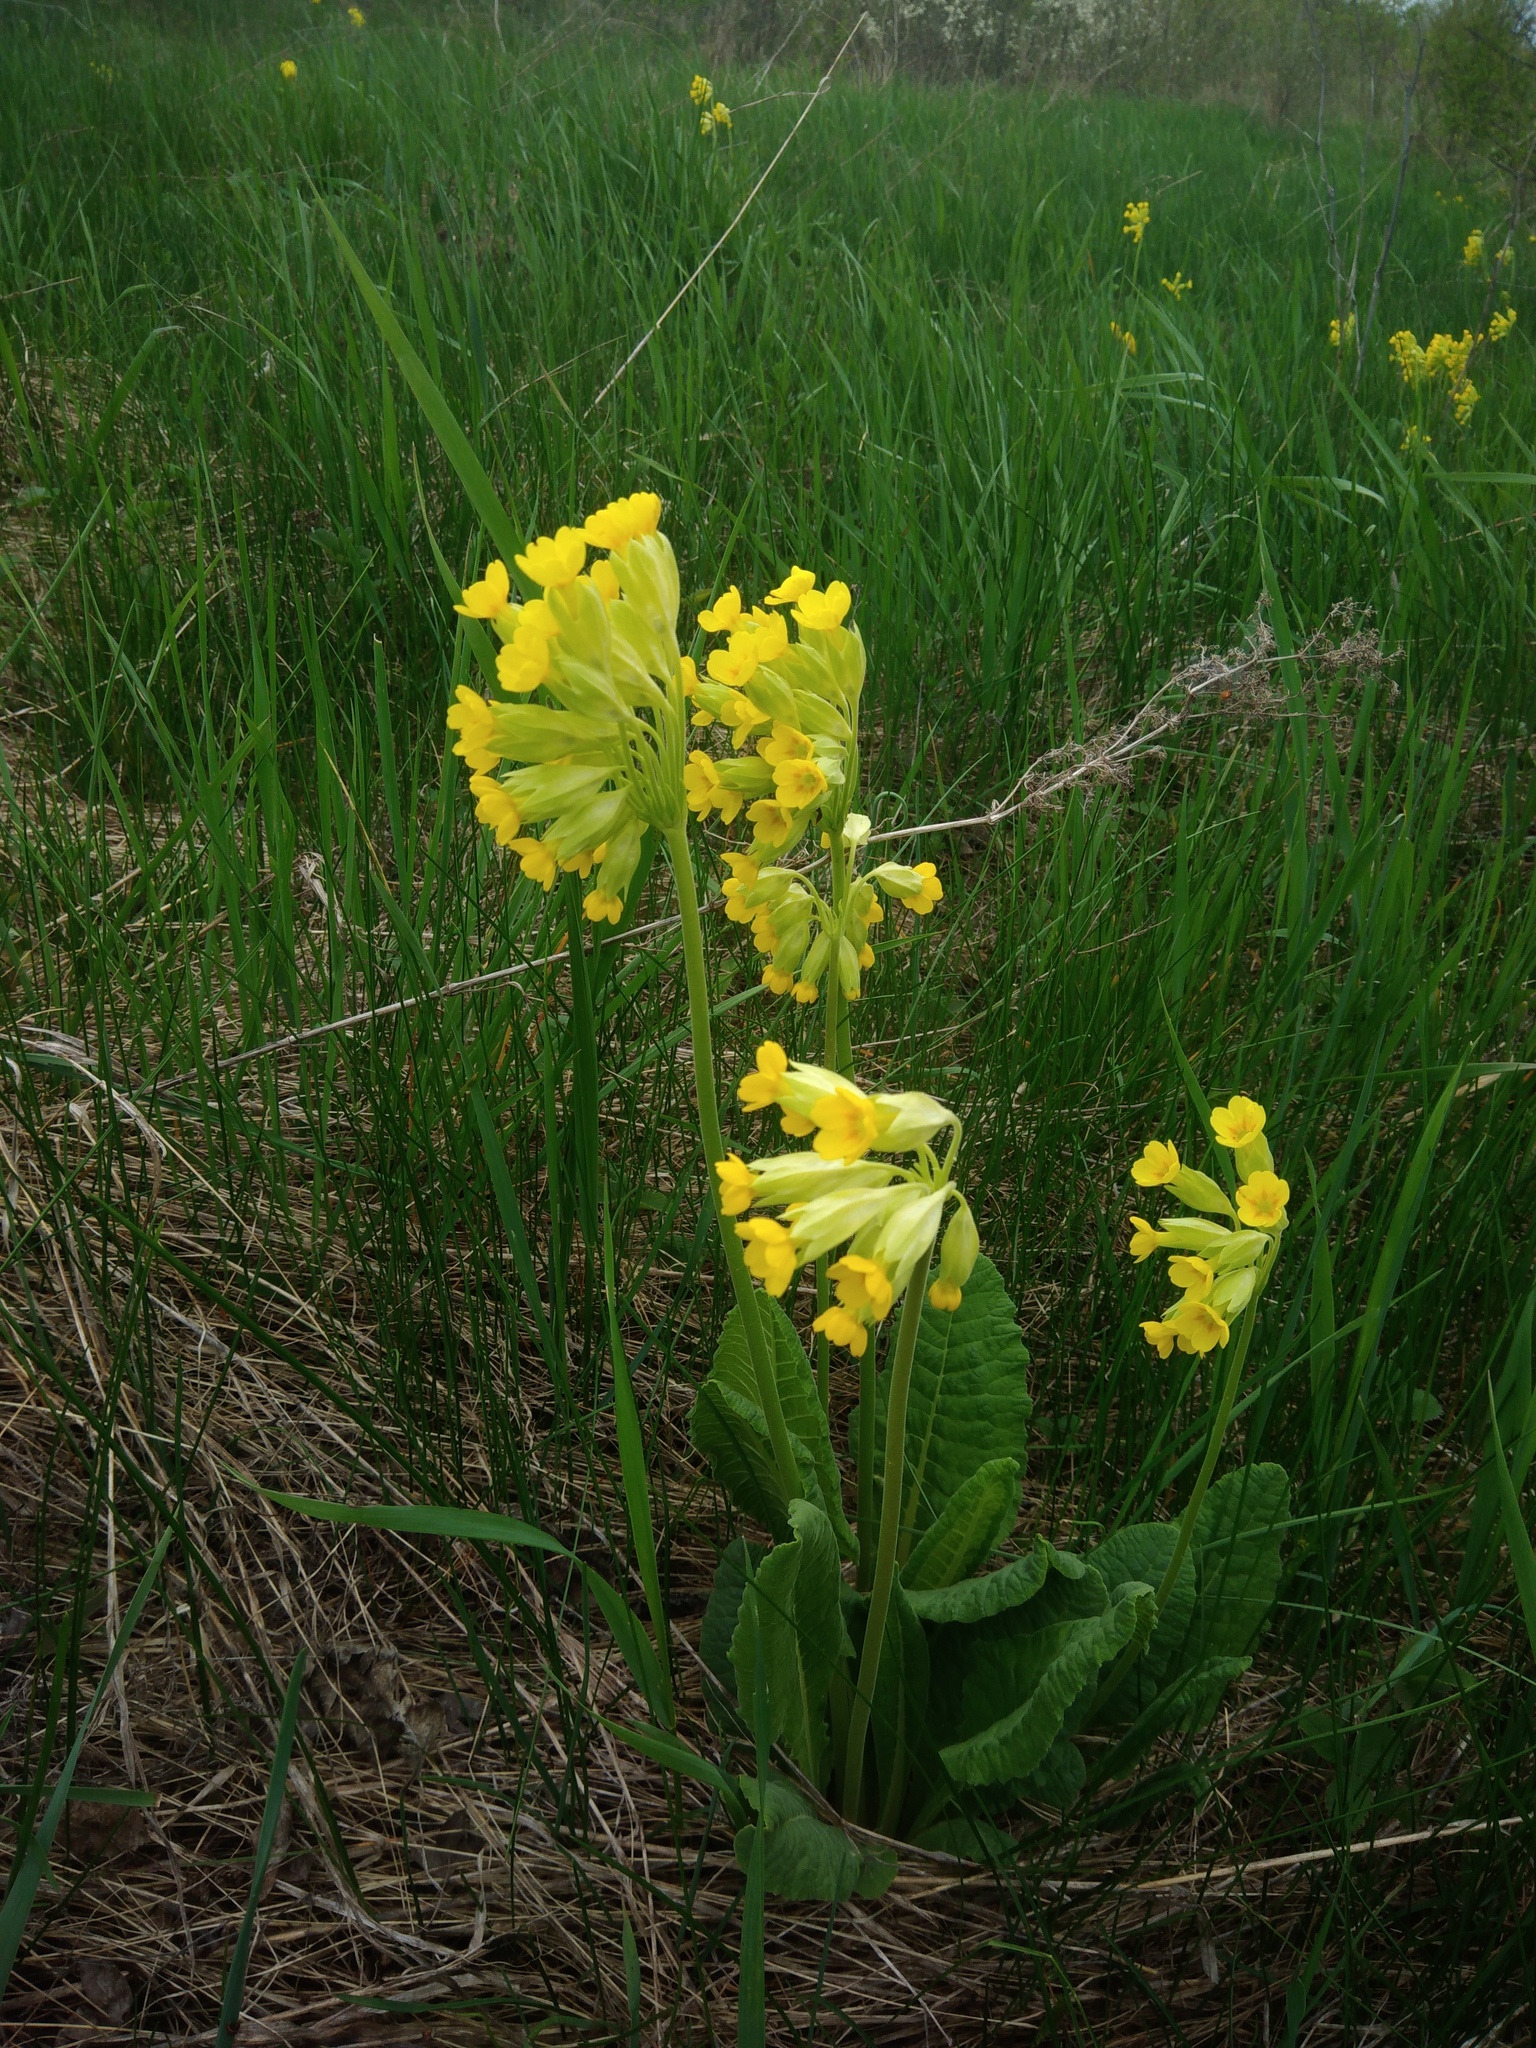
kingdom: Plantae
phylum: Tracheophyta
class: Magnoliopsida
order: Ericales
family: Primulaceae
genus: Primula
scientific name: Primula veris
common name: Cowslip
